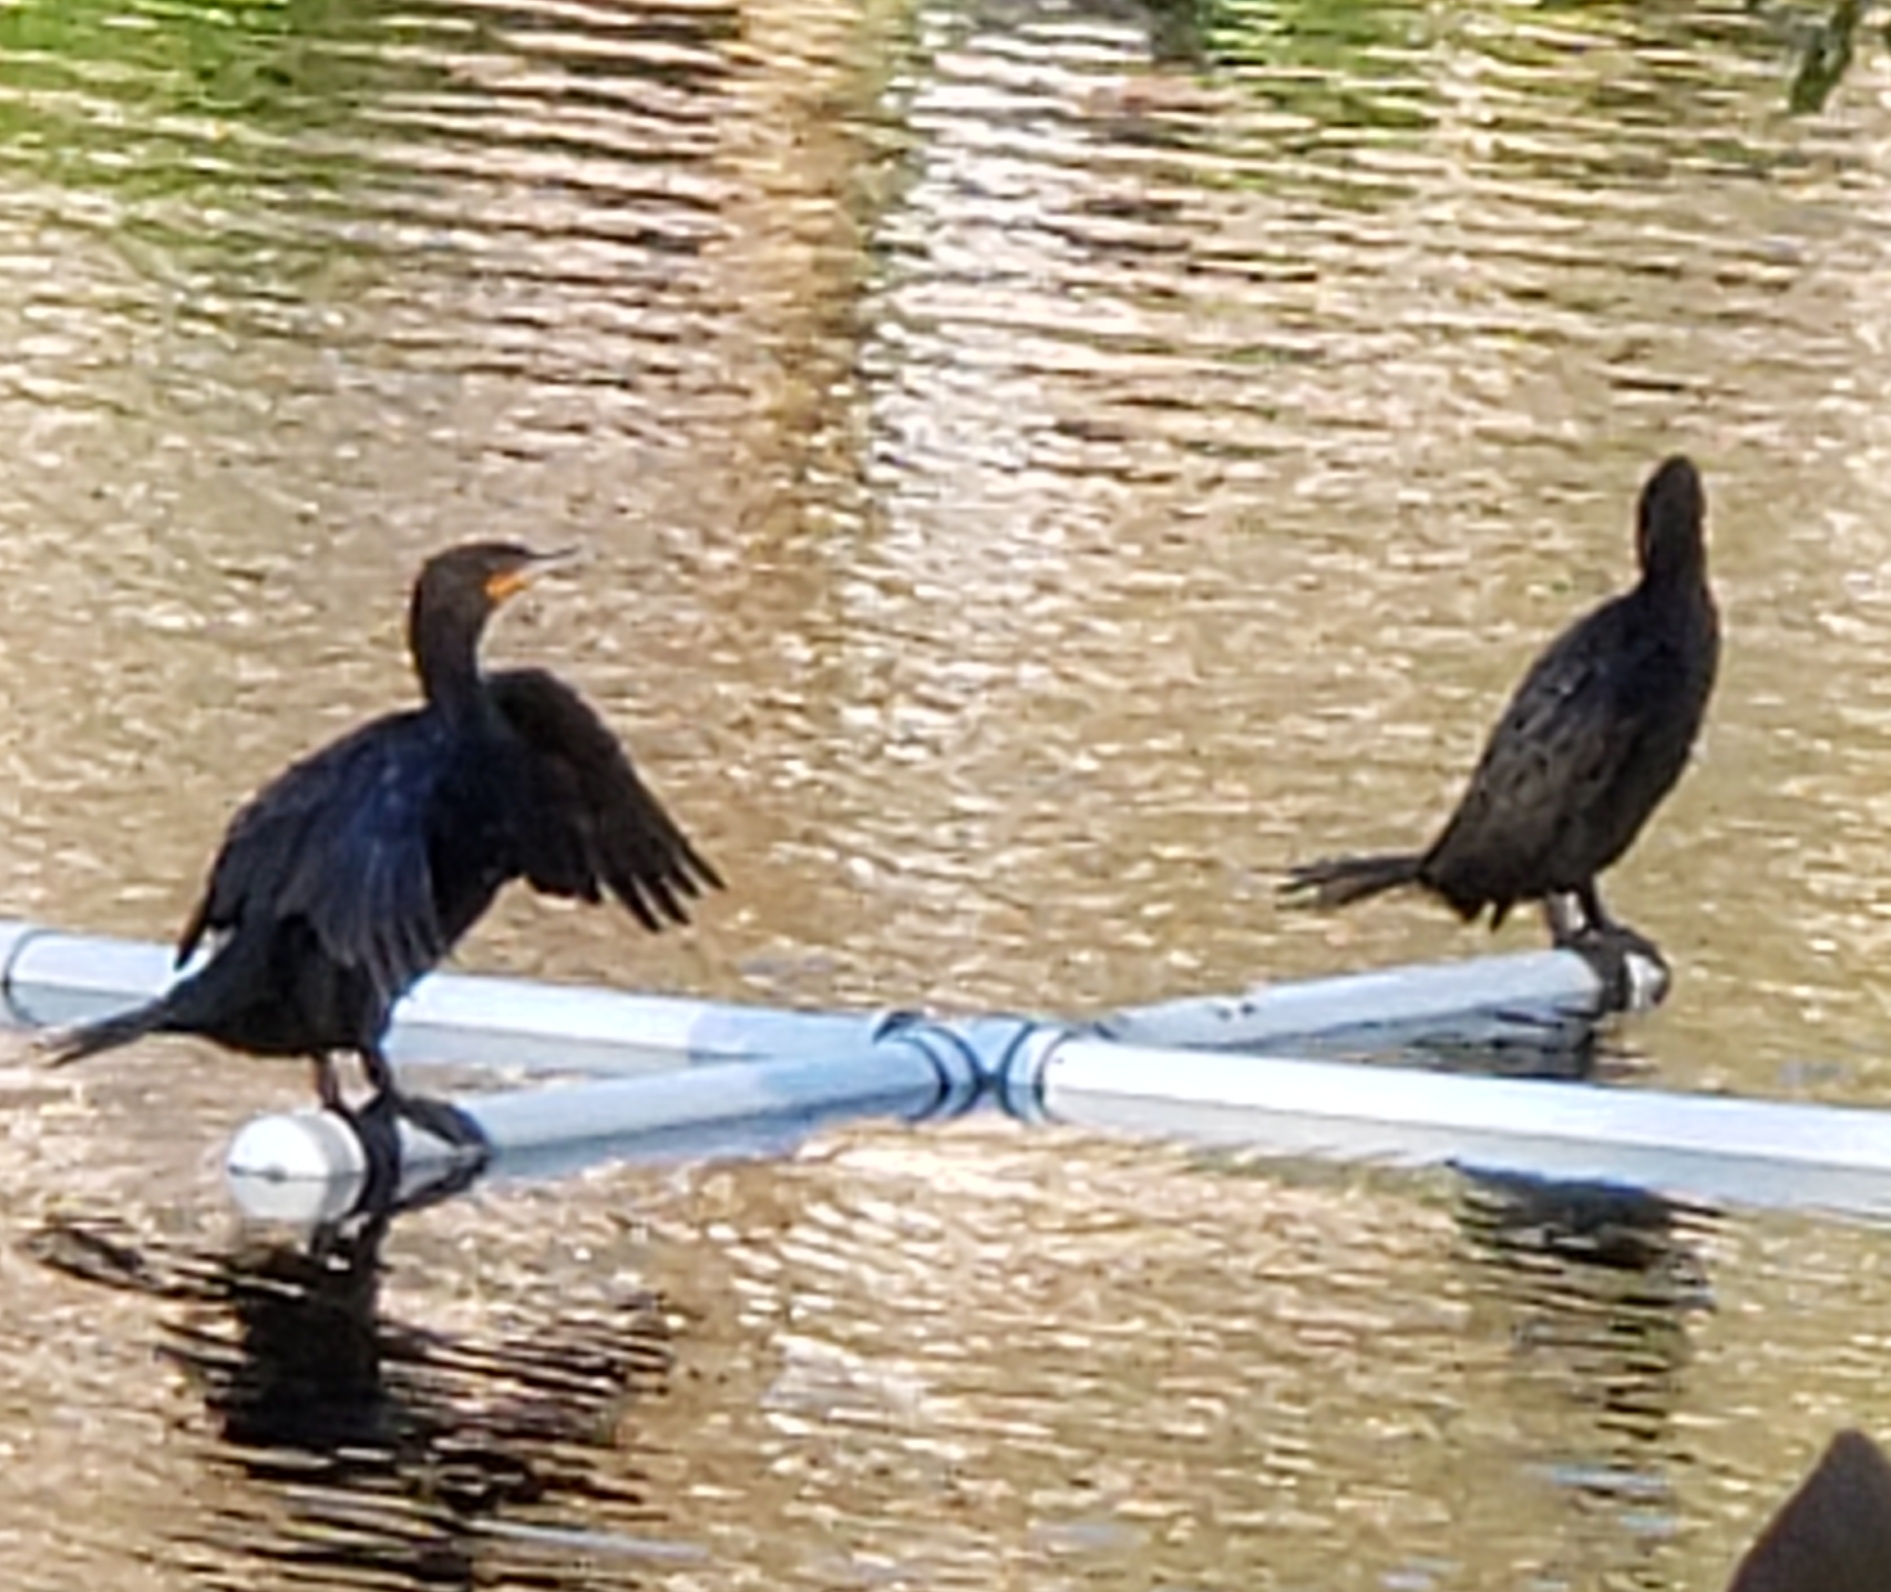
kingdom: Animalia
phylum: Chordata
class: Aves
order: Suliformes
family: Phalacrocoracidae
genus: Phalacrocorax
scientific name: Phalacrocorax auritus
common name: Double-crested cormorant
